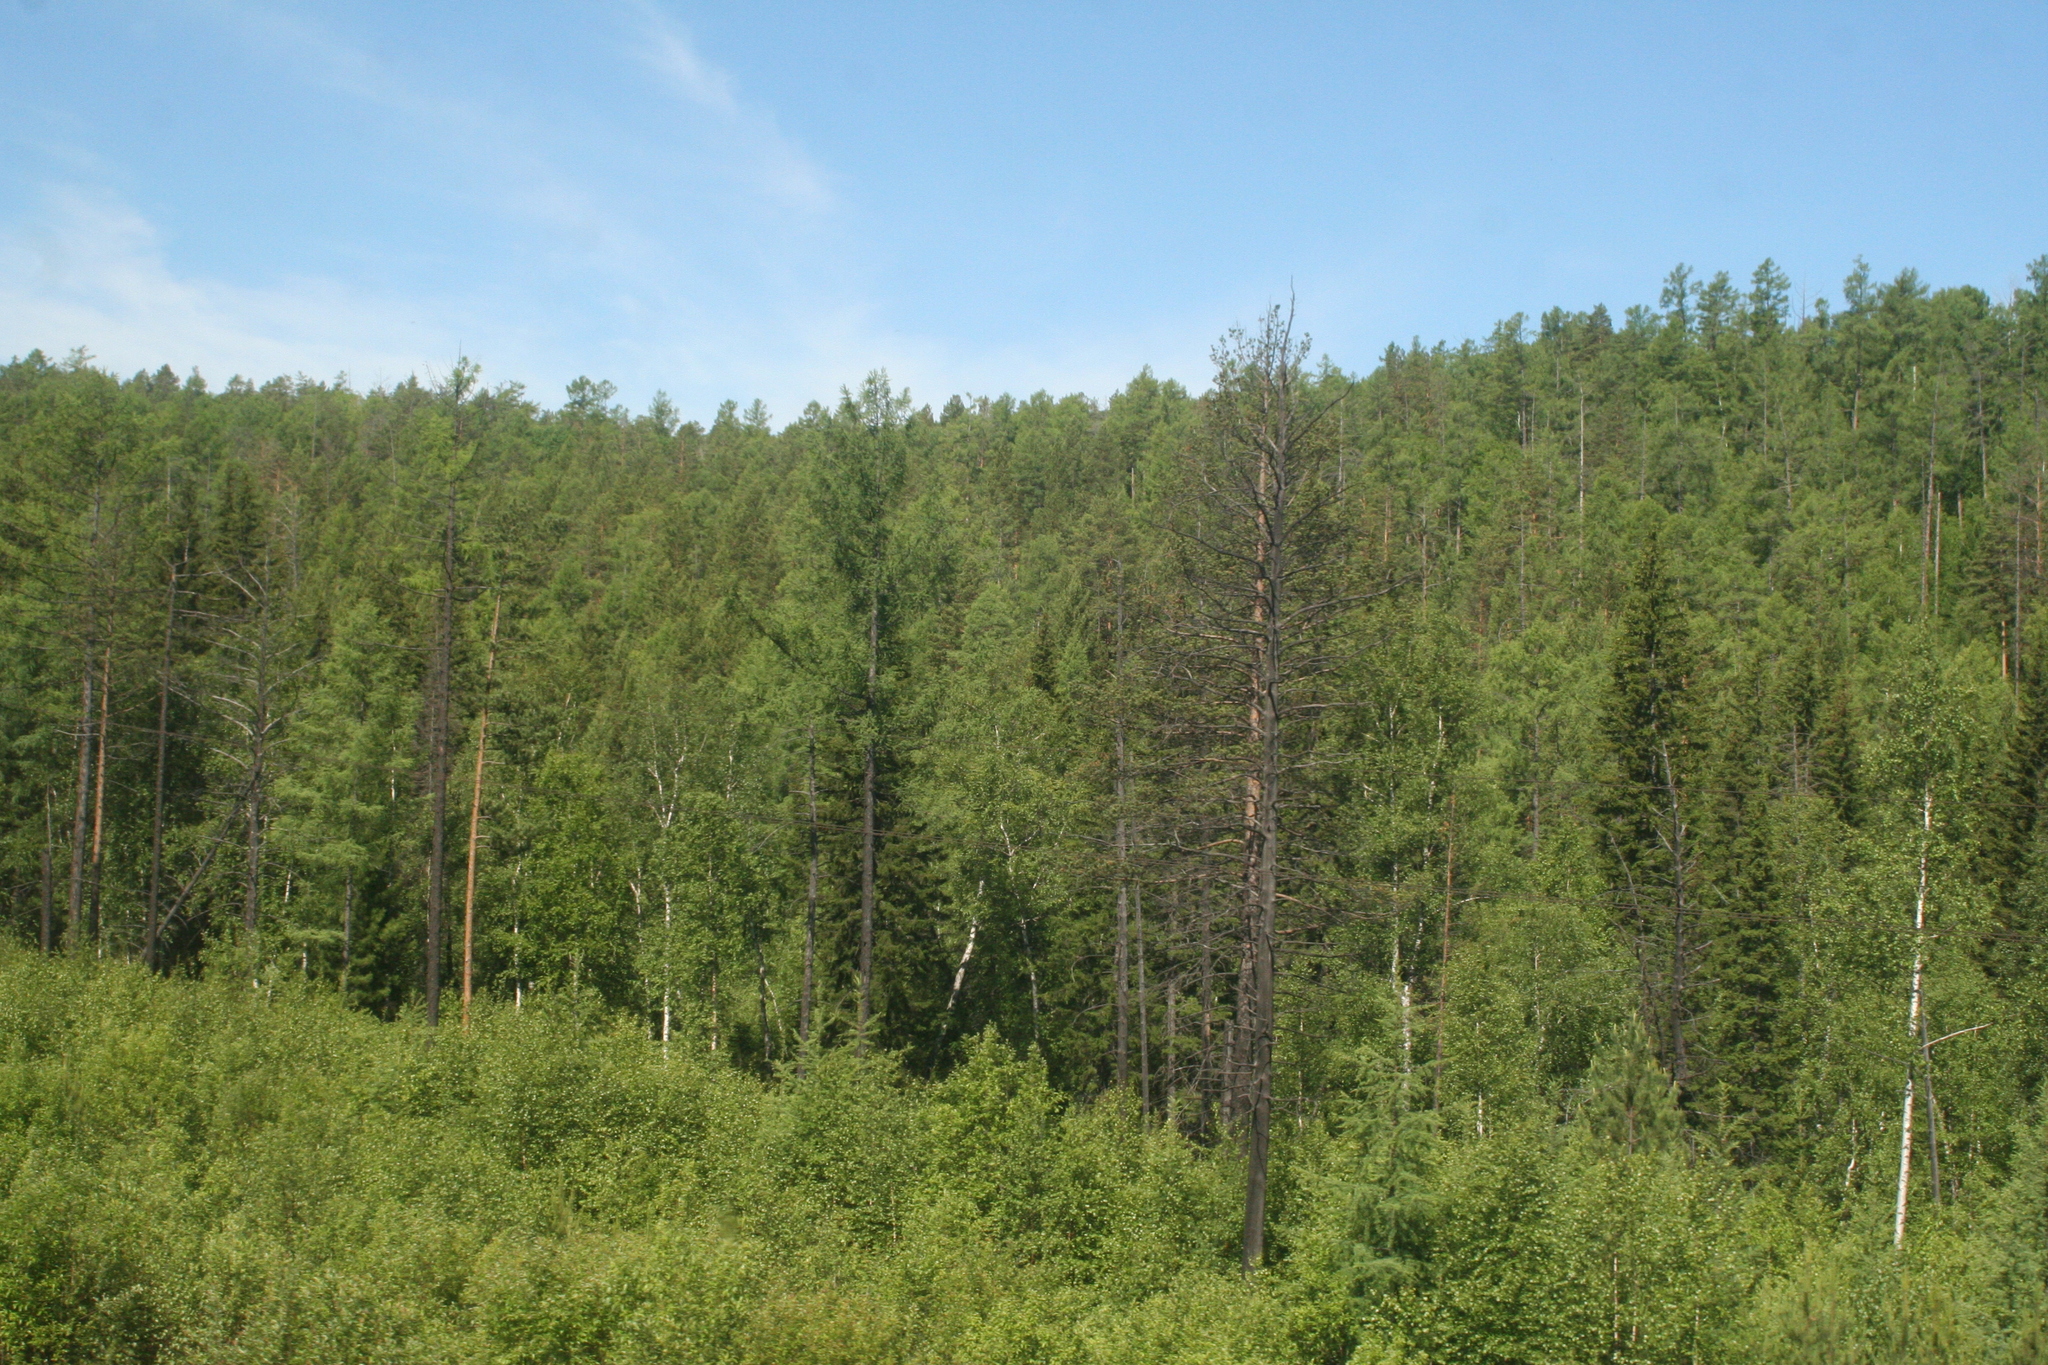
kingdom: Plantae
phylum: Tracheophyta
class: Pinopsida
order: Pinales
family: Pinaceae
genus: Pinus
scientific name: Pinus sylvestris
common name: Scots pine
